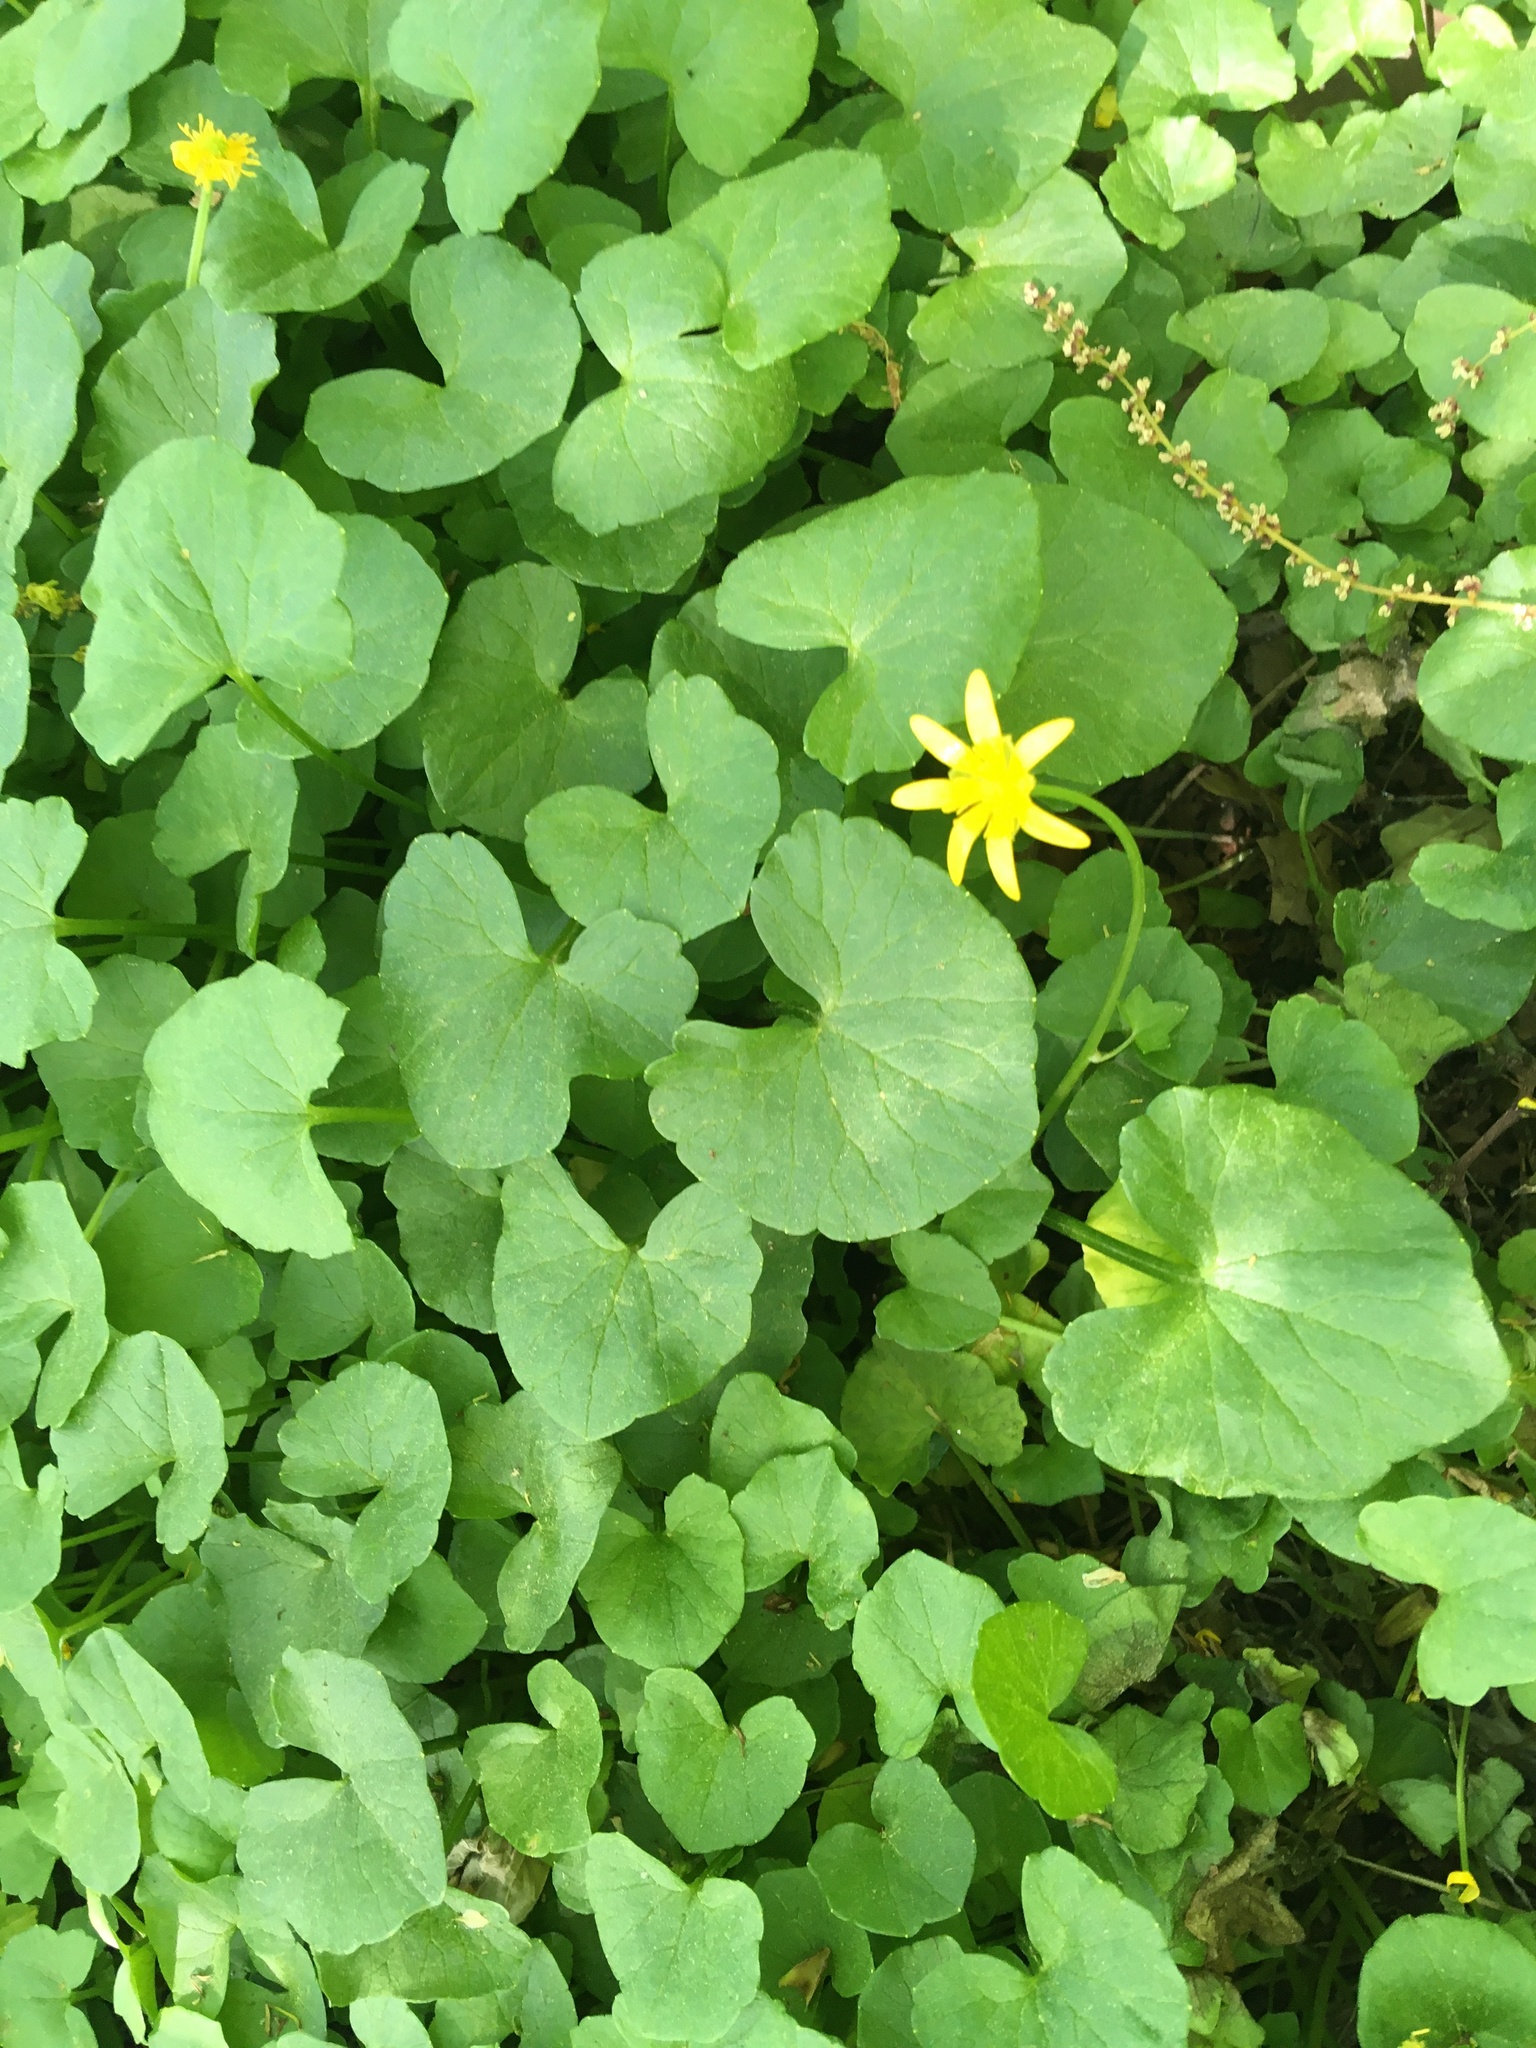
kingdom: Plantae
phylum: Tracheophyta
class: Magnoliopsida
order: Ranunculales
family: Ranunculaceae
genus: Ficaria
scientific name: Ficaria verna
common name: Lesser celandine
